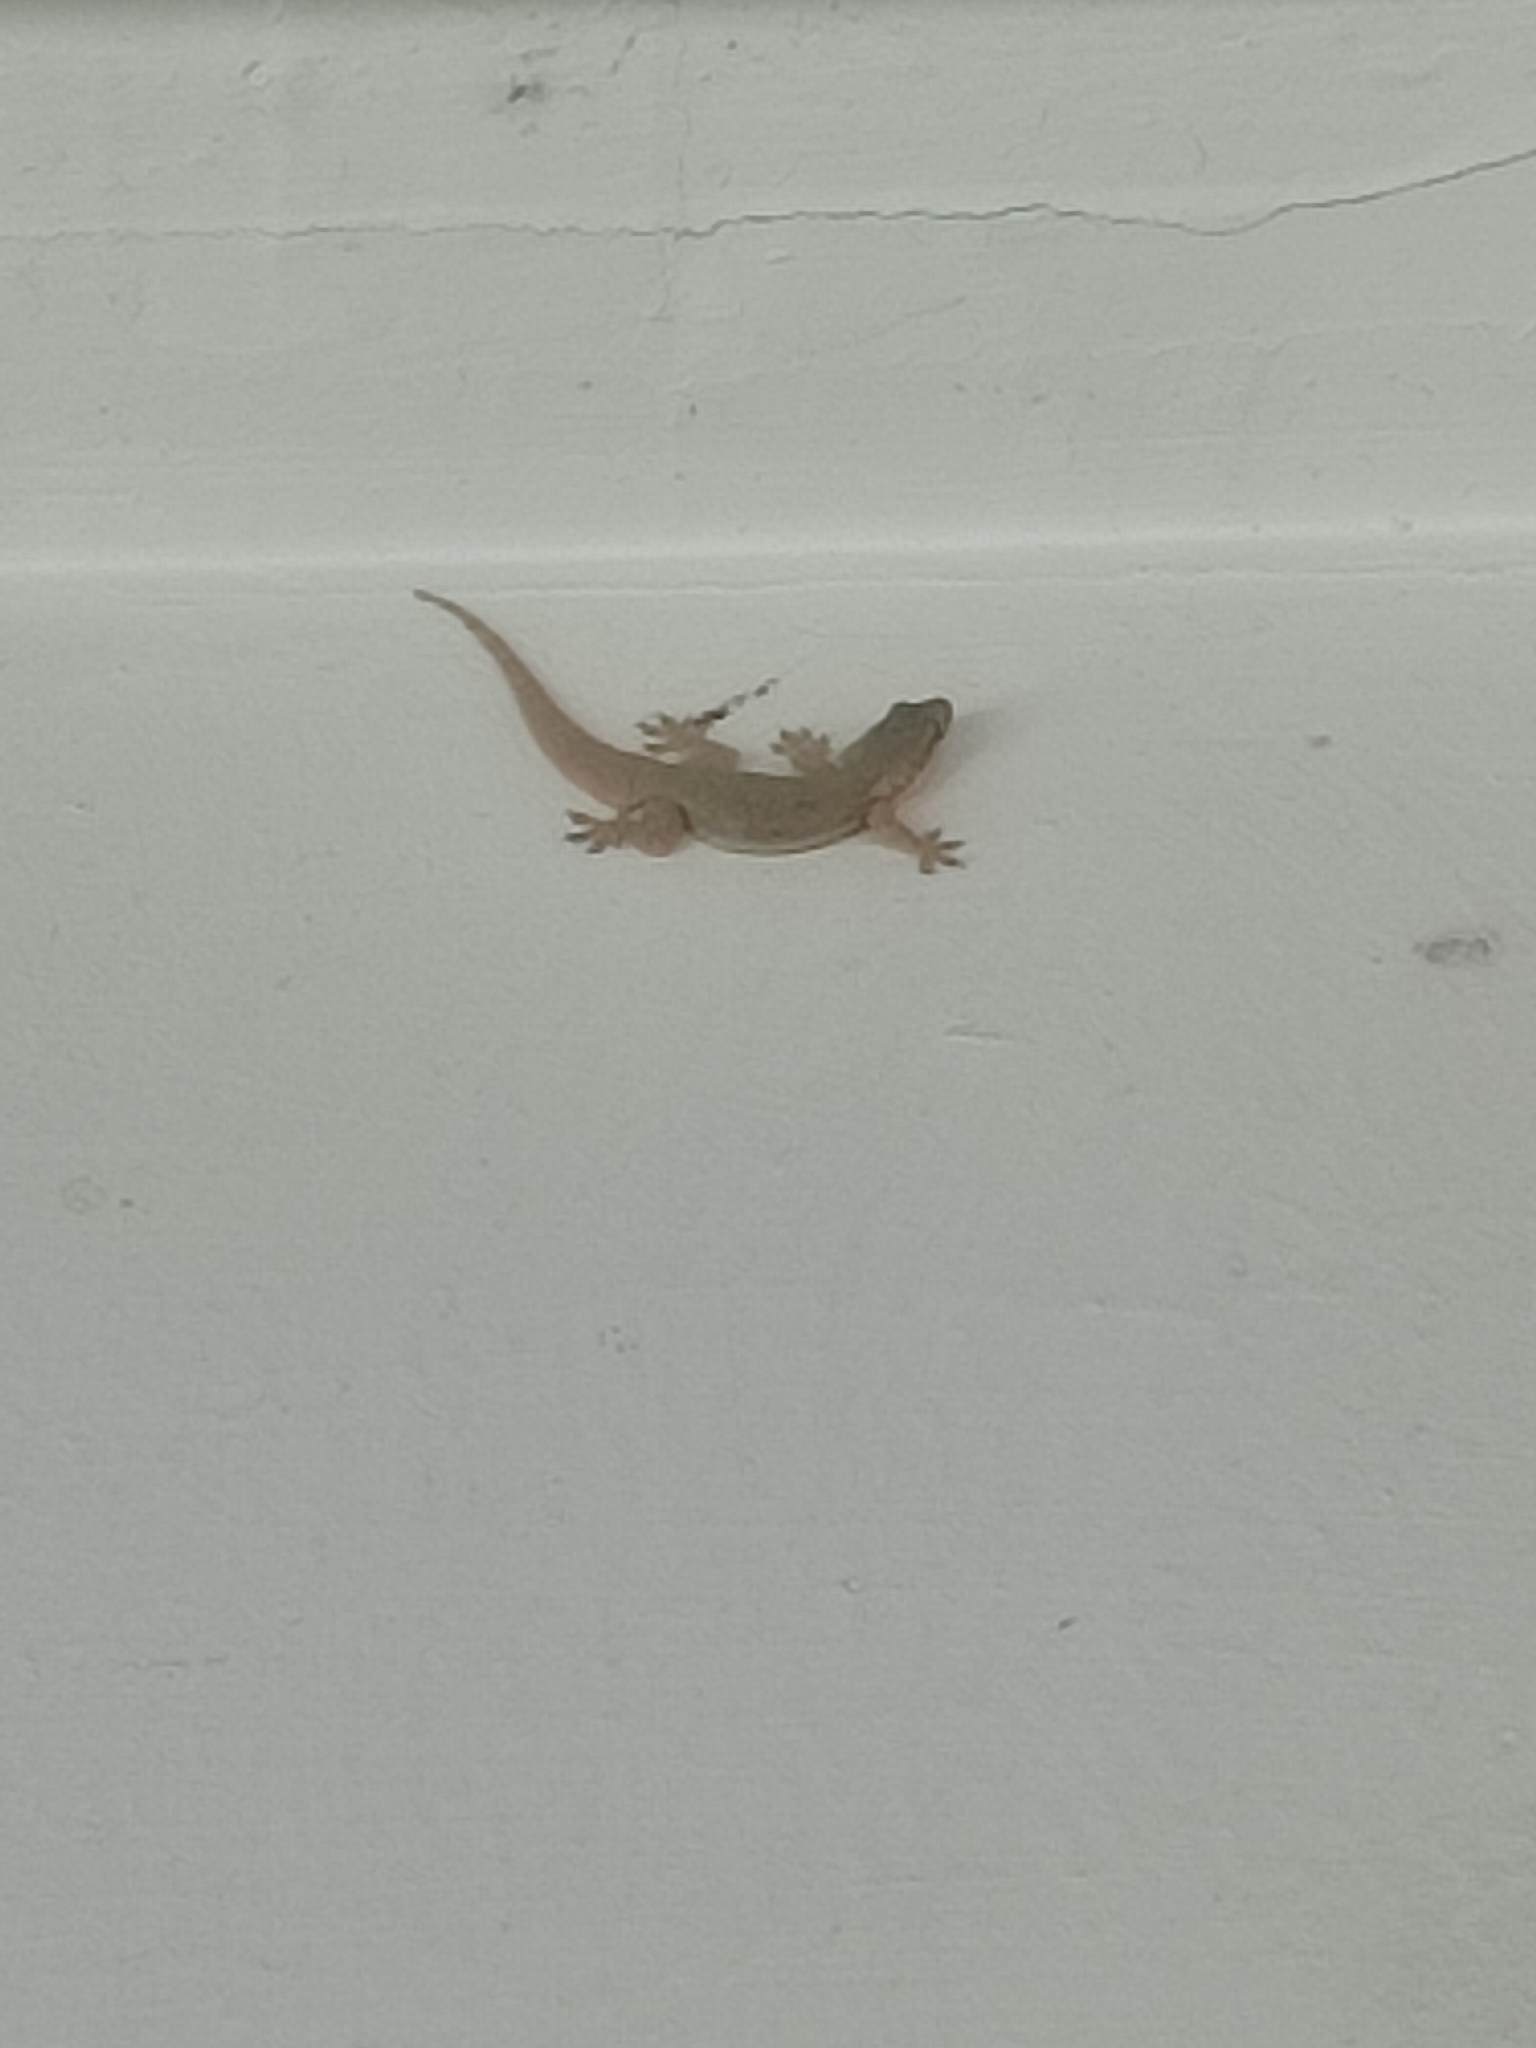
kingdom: Animalia
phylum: Chordata
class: Squamata
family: Gekkonidae
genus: Hemidactylus
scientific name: Hemidactylus platyurus
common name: Flat-tailed house gecko
